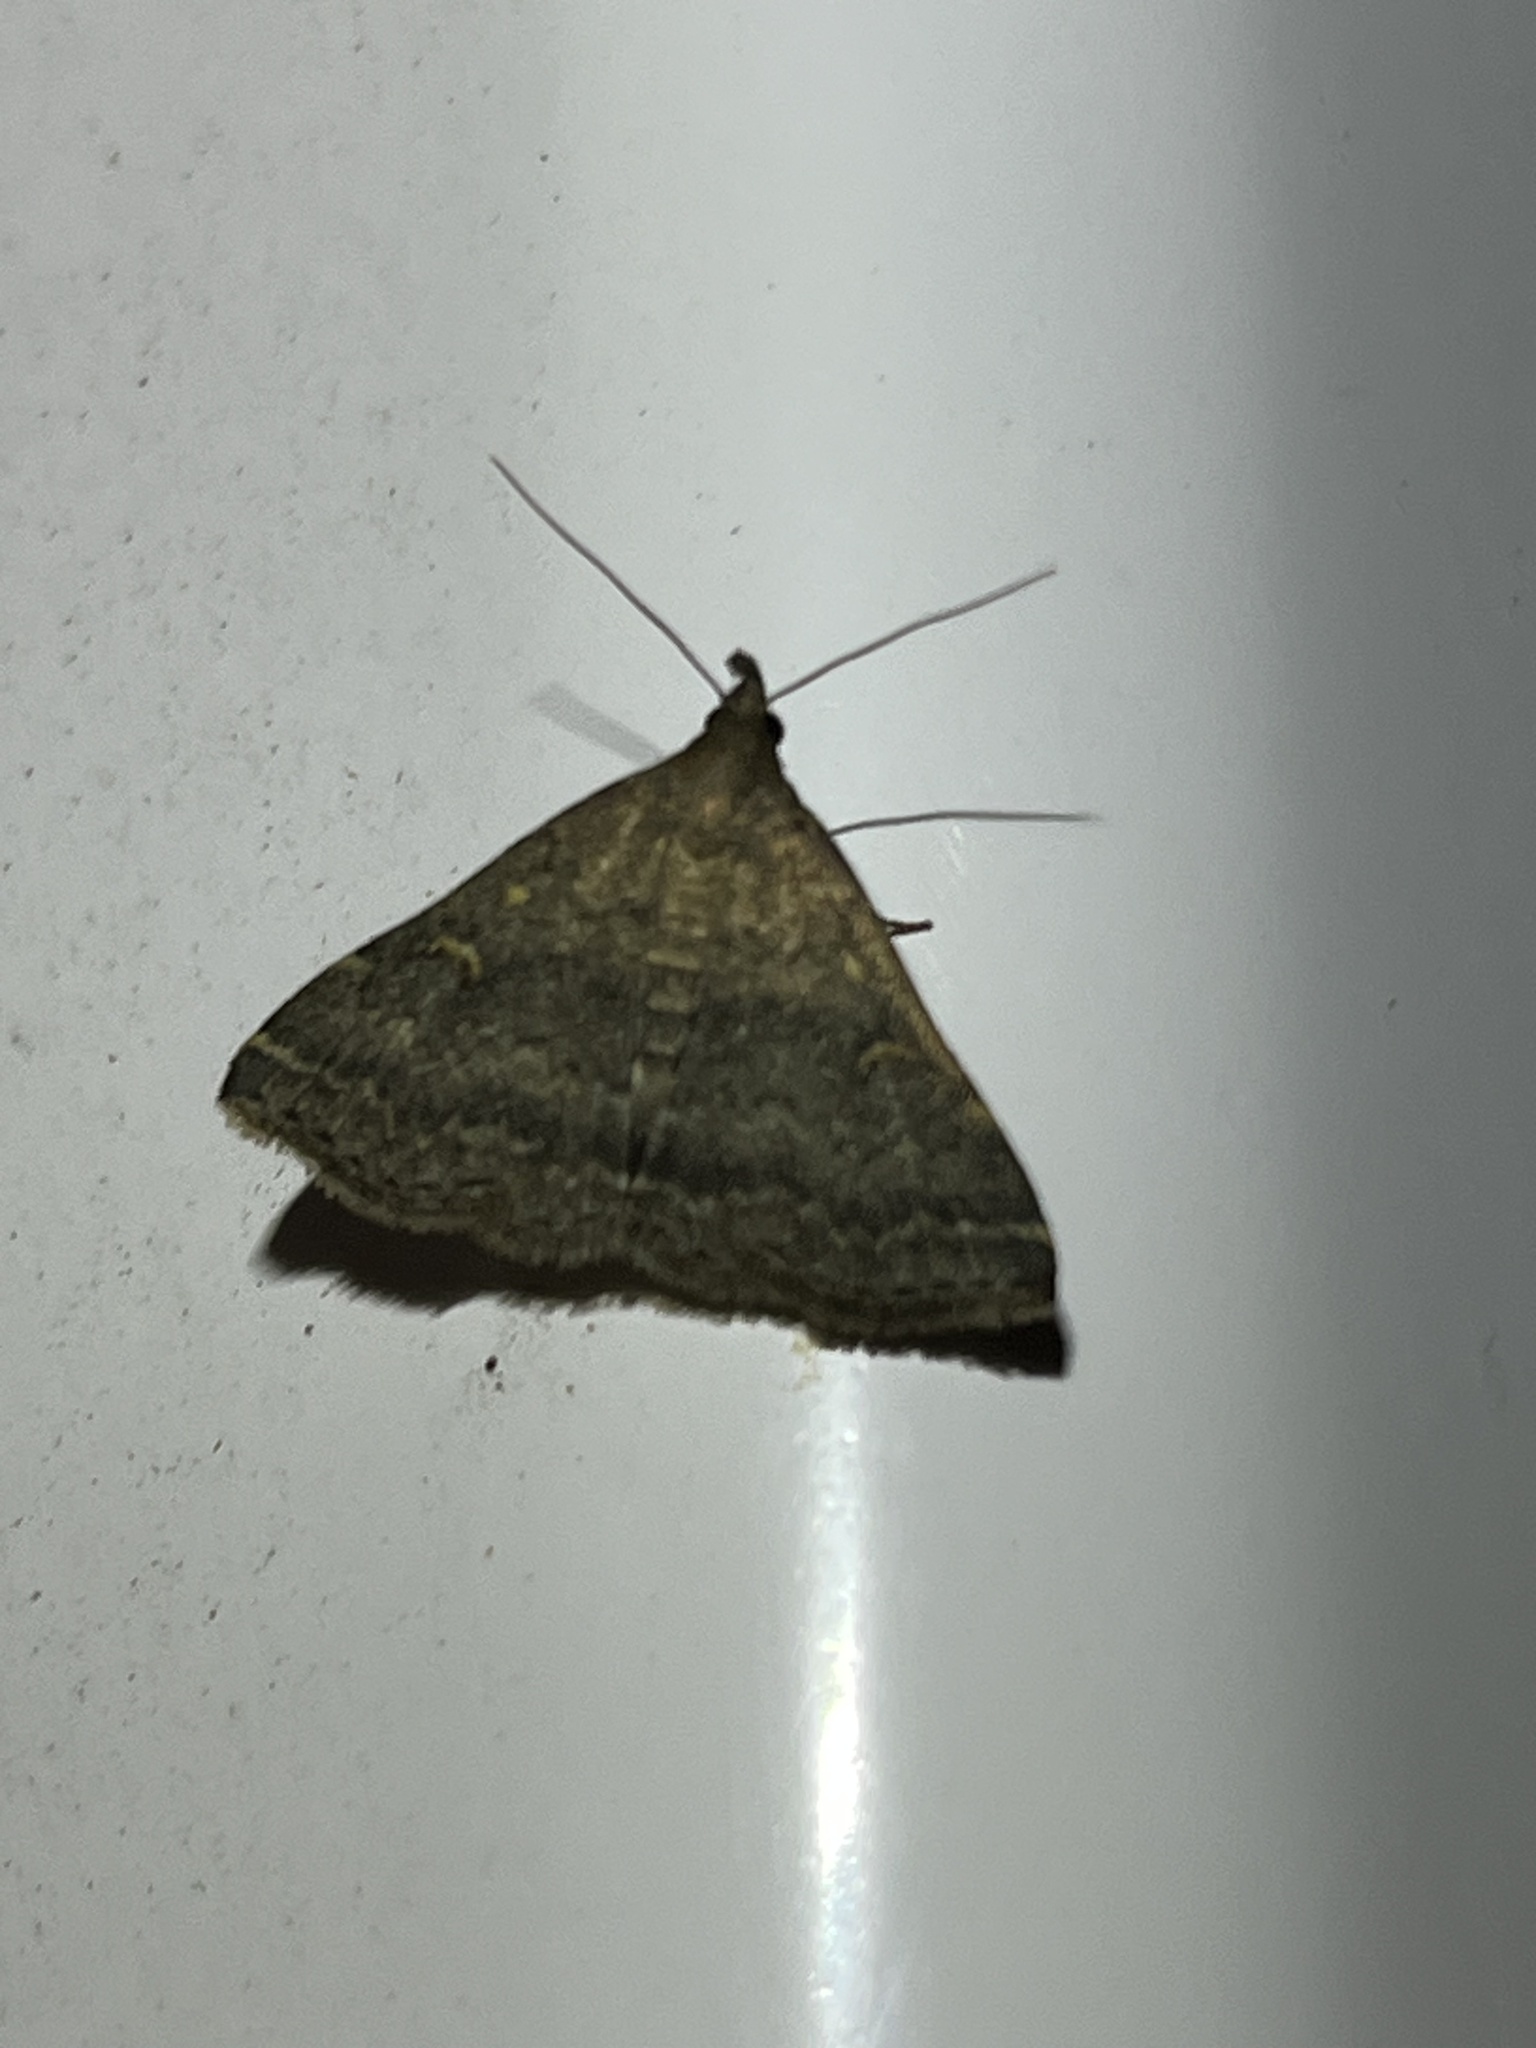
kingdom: Animalia
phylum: Arthropoda
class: Insecta
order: Lepidoptera
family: Erebidae
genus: Tetanolita
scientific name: Tetanolita floridana
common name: Florida tetanolita moth
